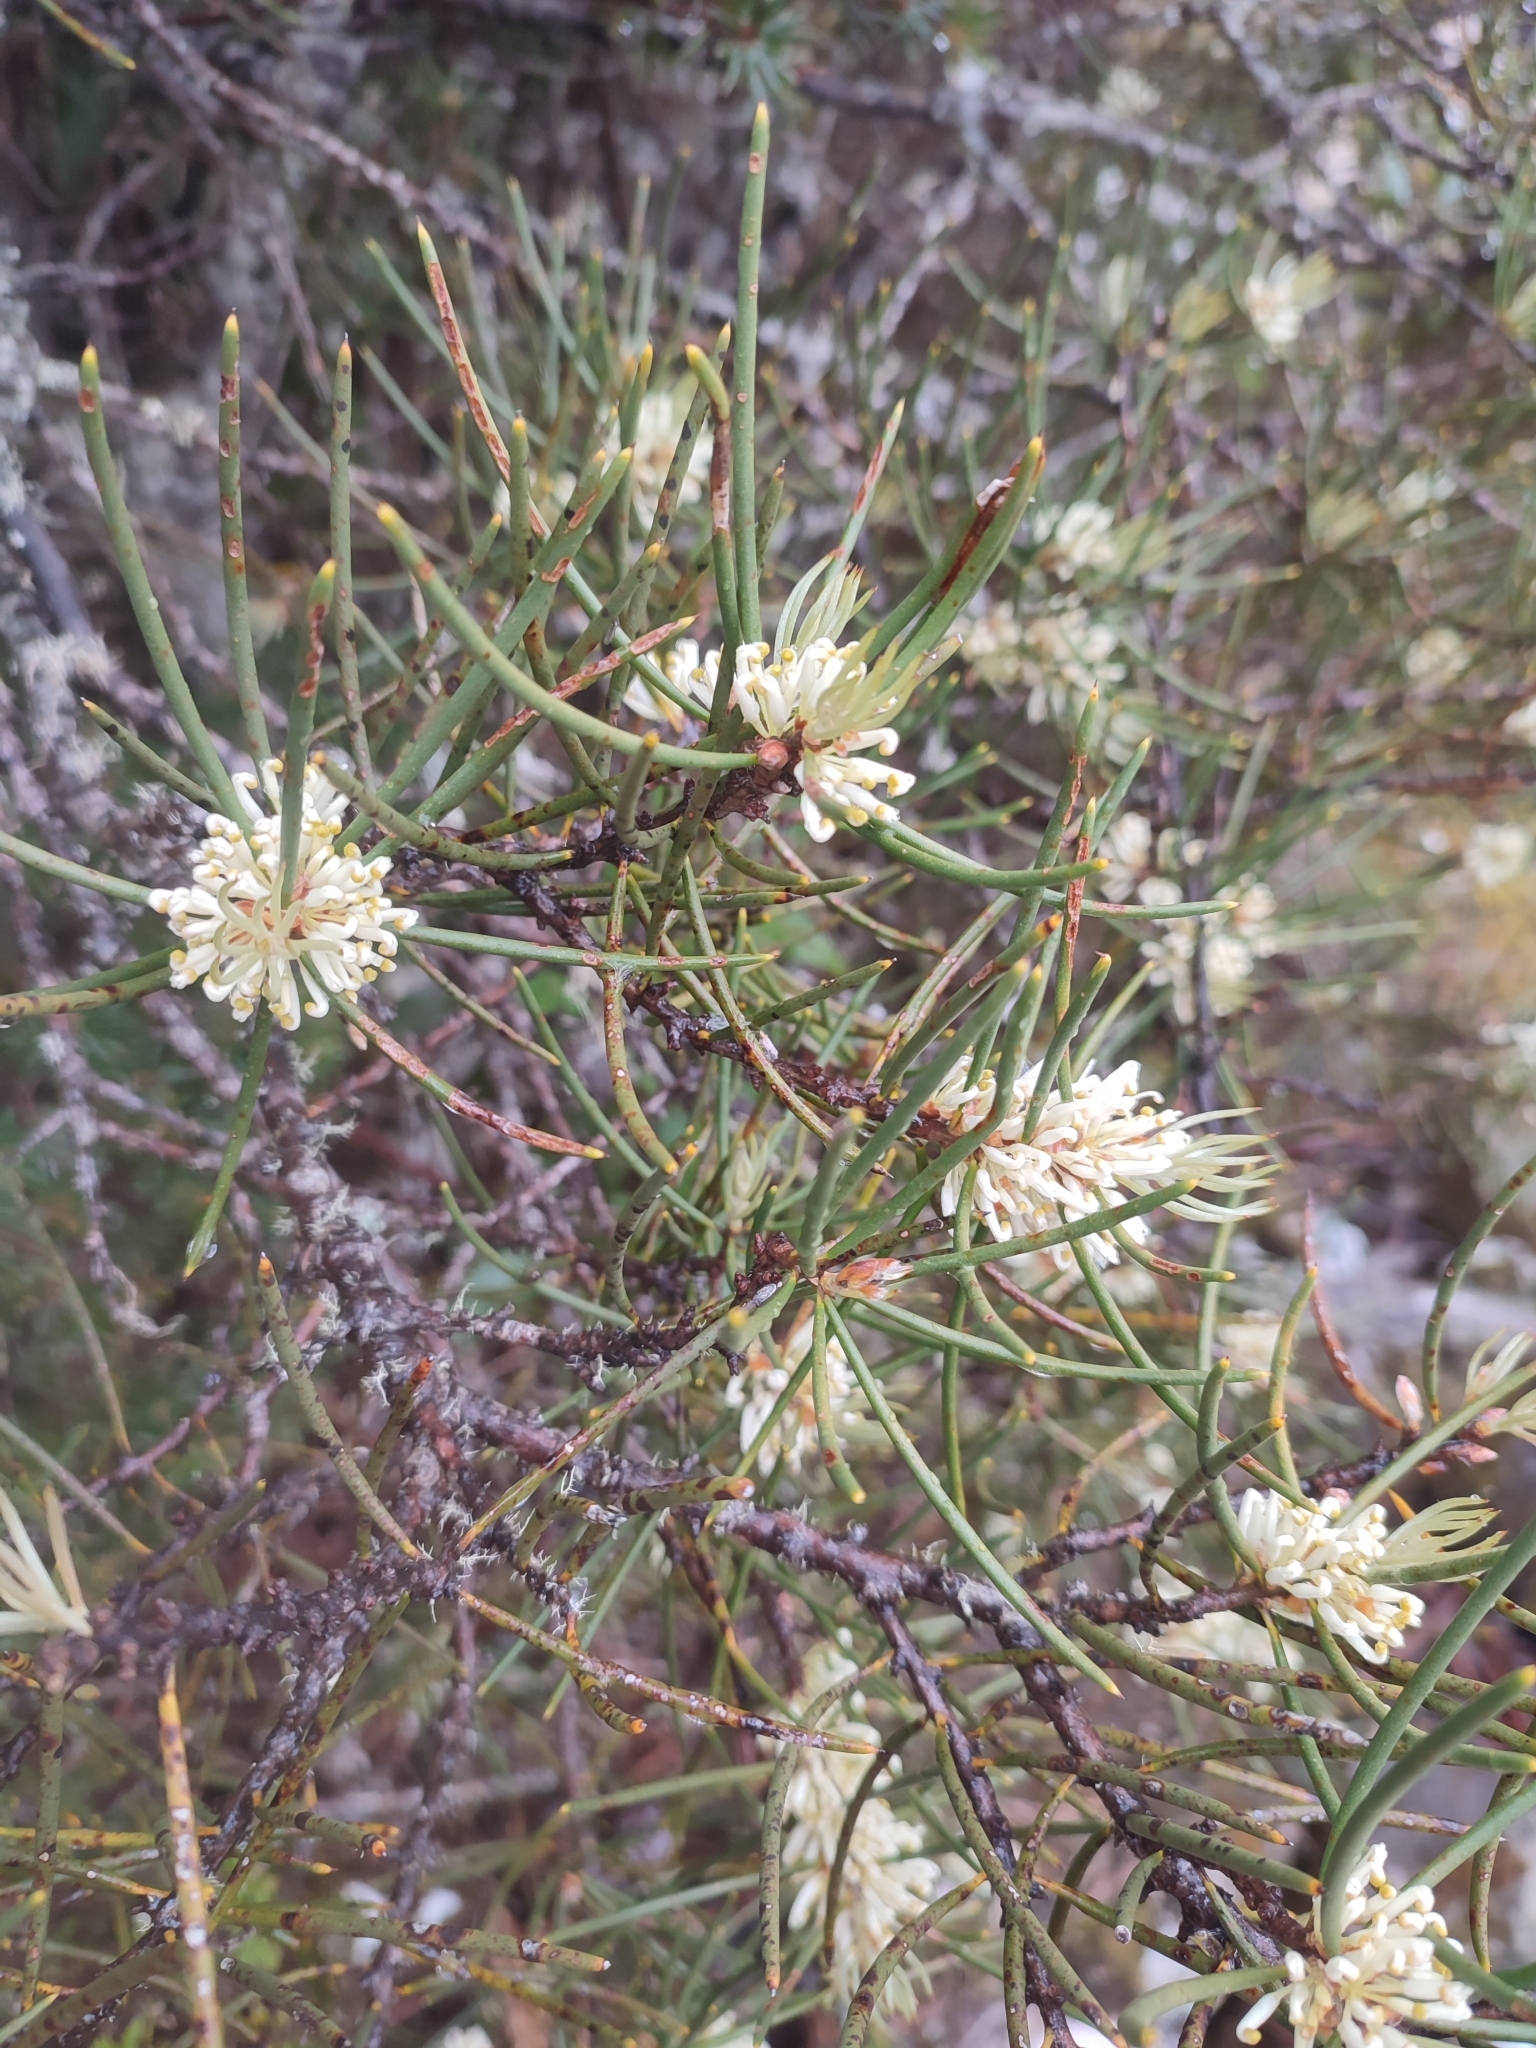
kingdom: Plantae
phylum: Tracheophyta
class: Magnoliopsida
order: Proteales
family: Proteaceae
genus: Hakea
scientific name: Hakea lissosperma
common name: Mountain needlewood
